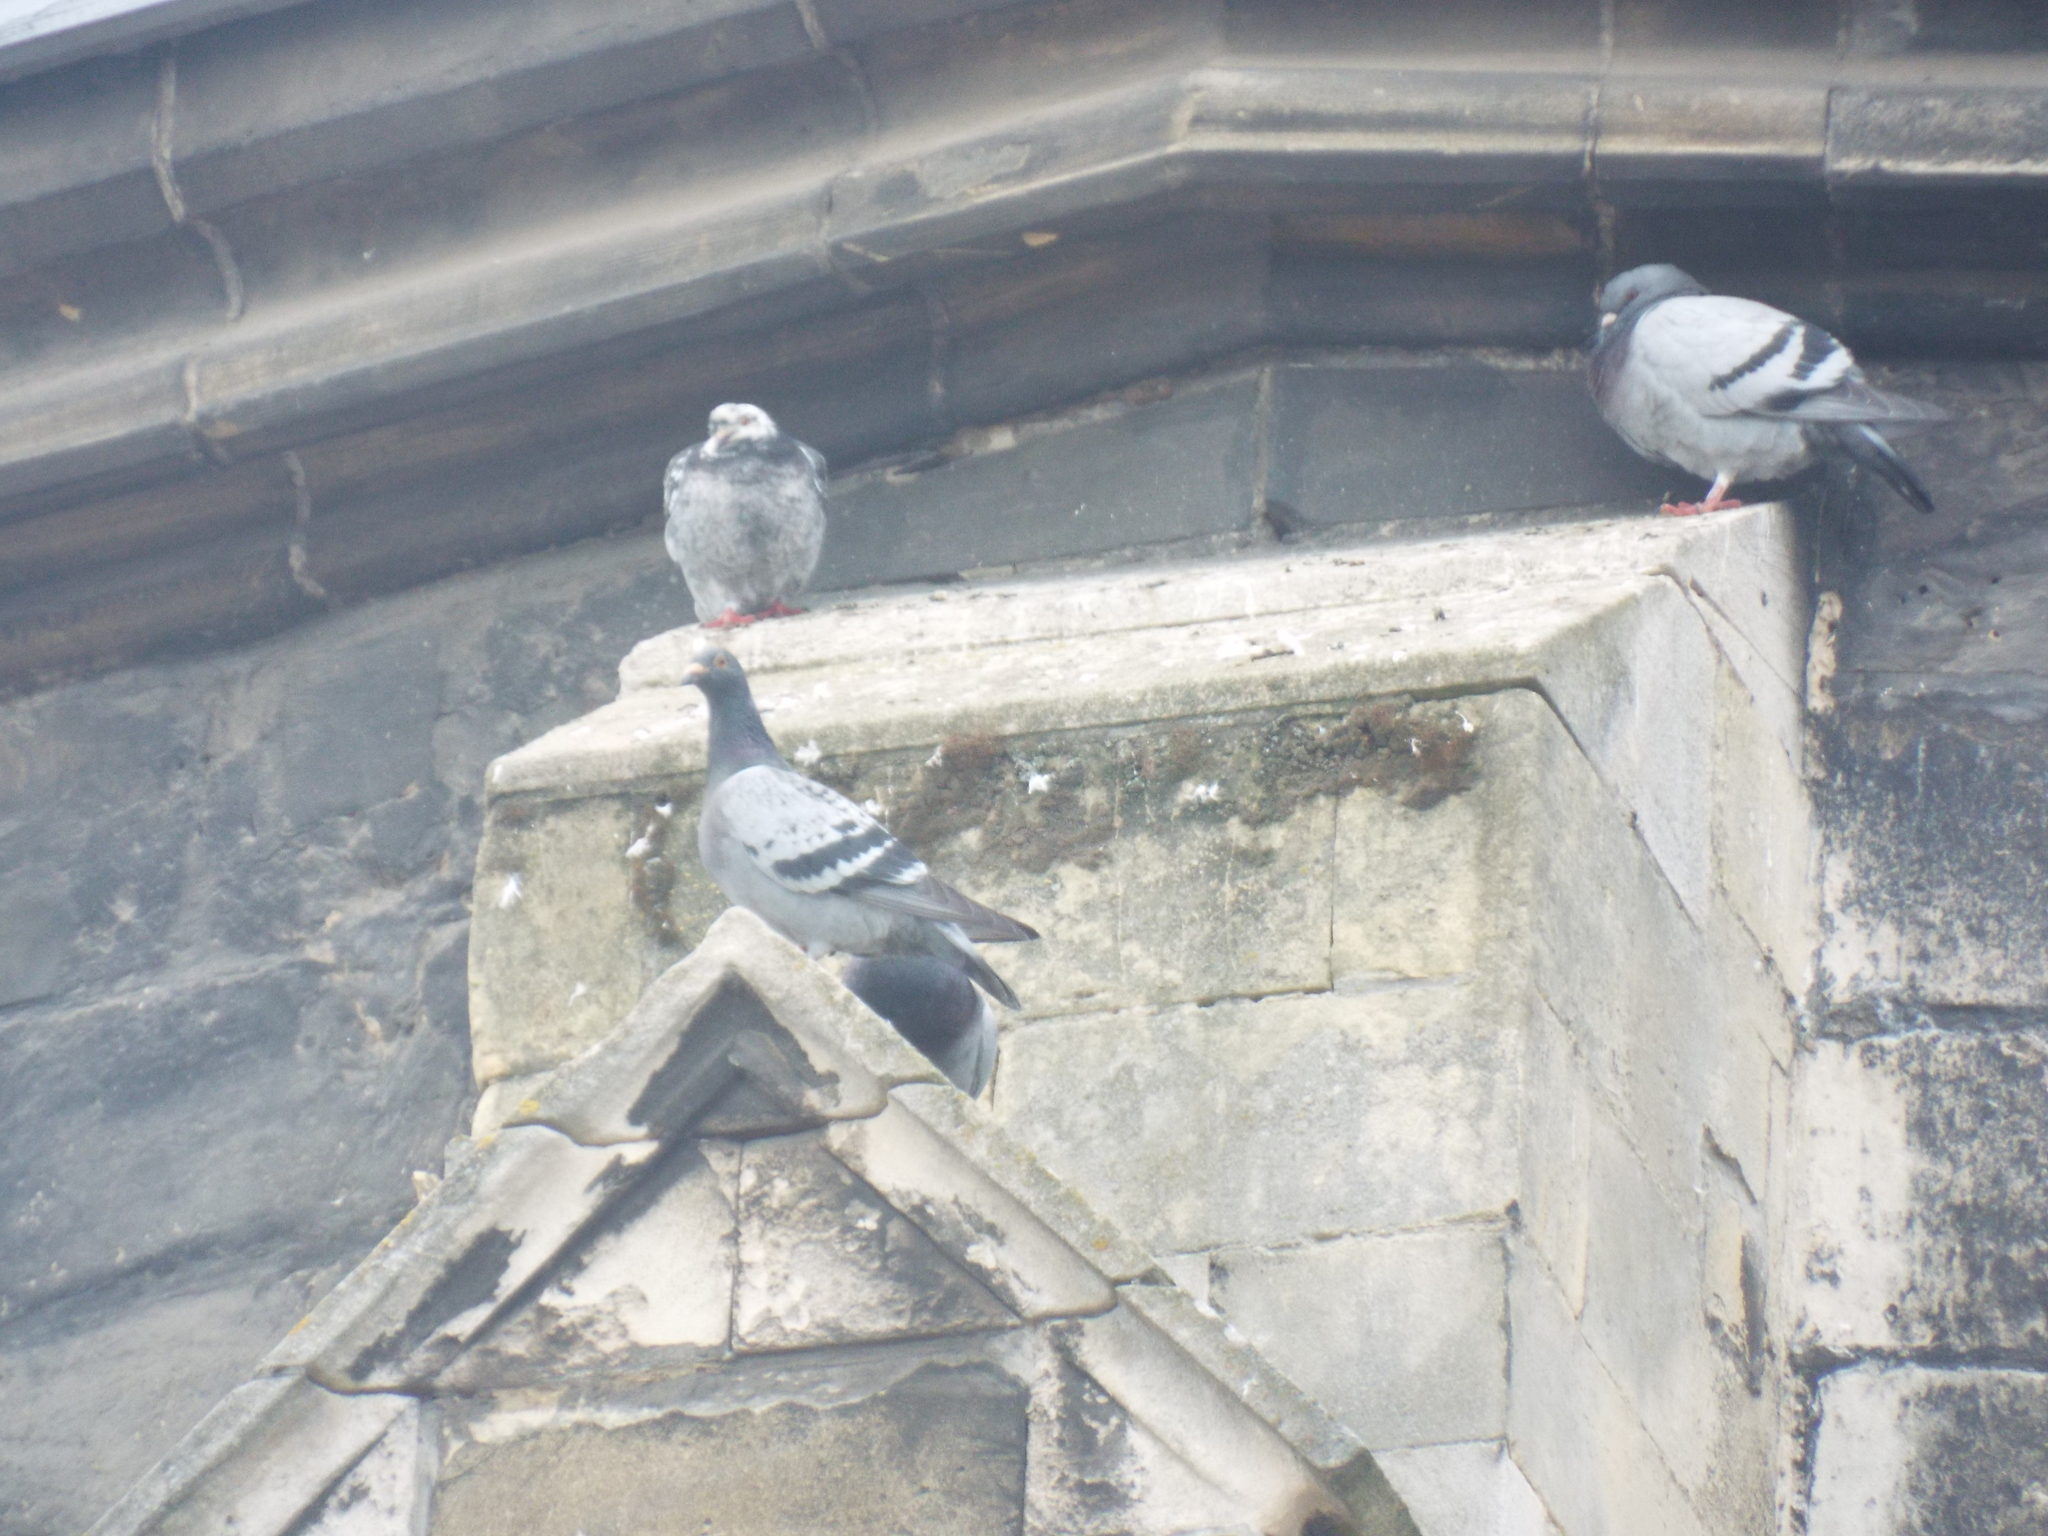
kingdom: Animalia
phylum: Chordata
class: Aves
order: Columbiformes
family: Columbidae
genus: Columba
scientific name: Columba livia
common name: Rock pigeon
